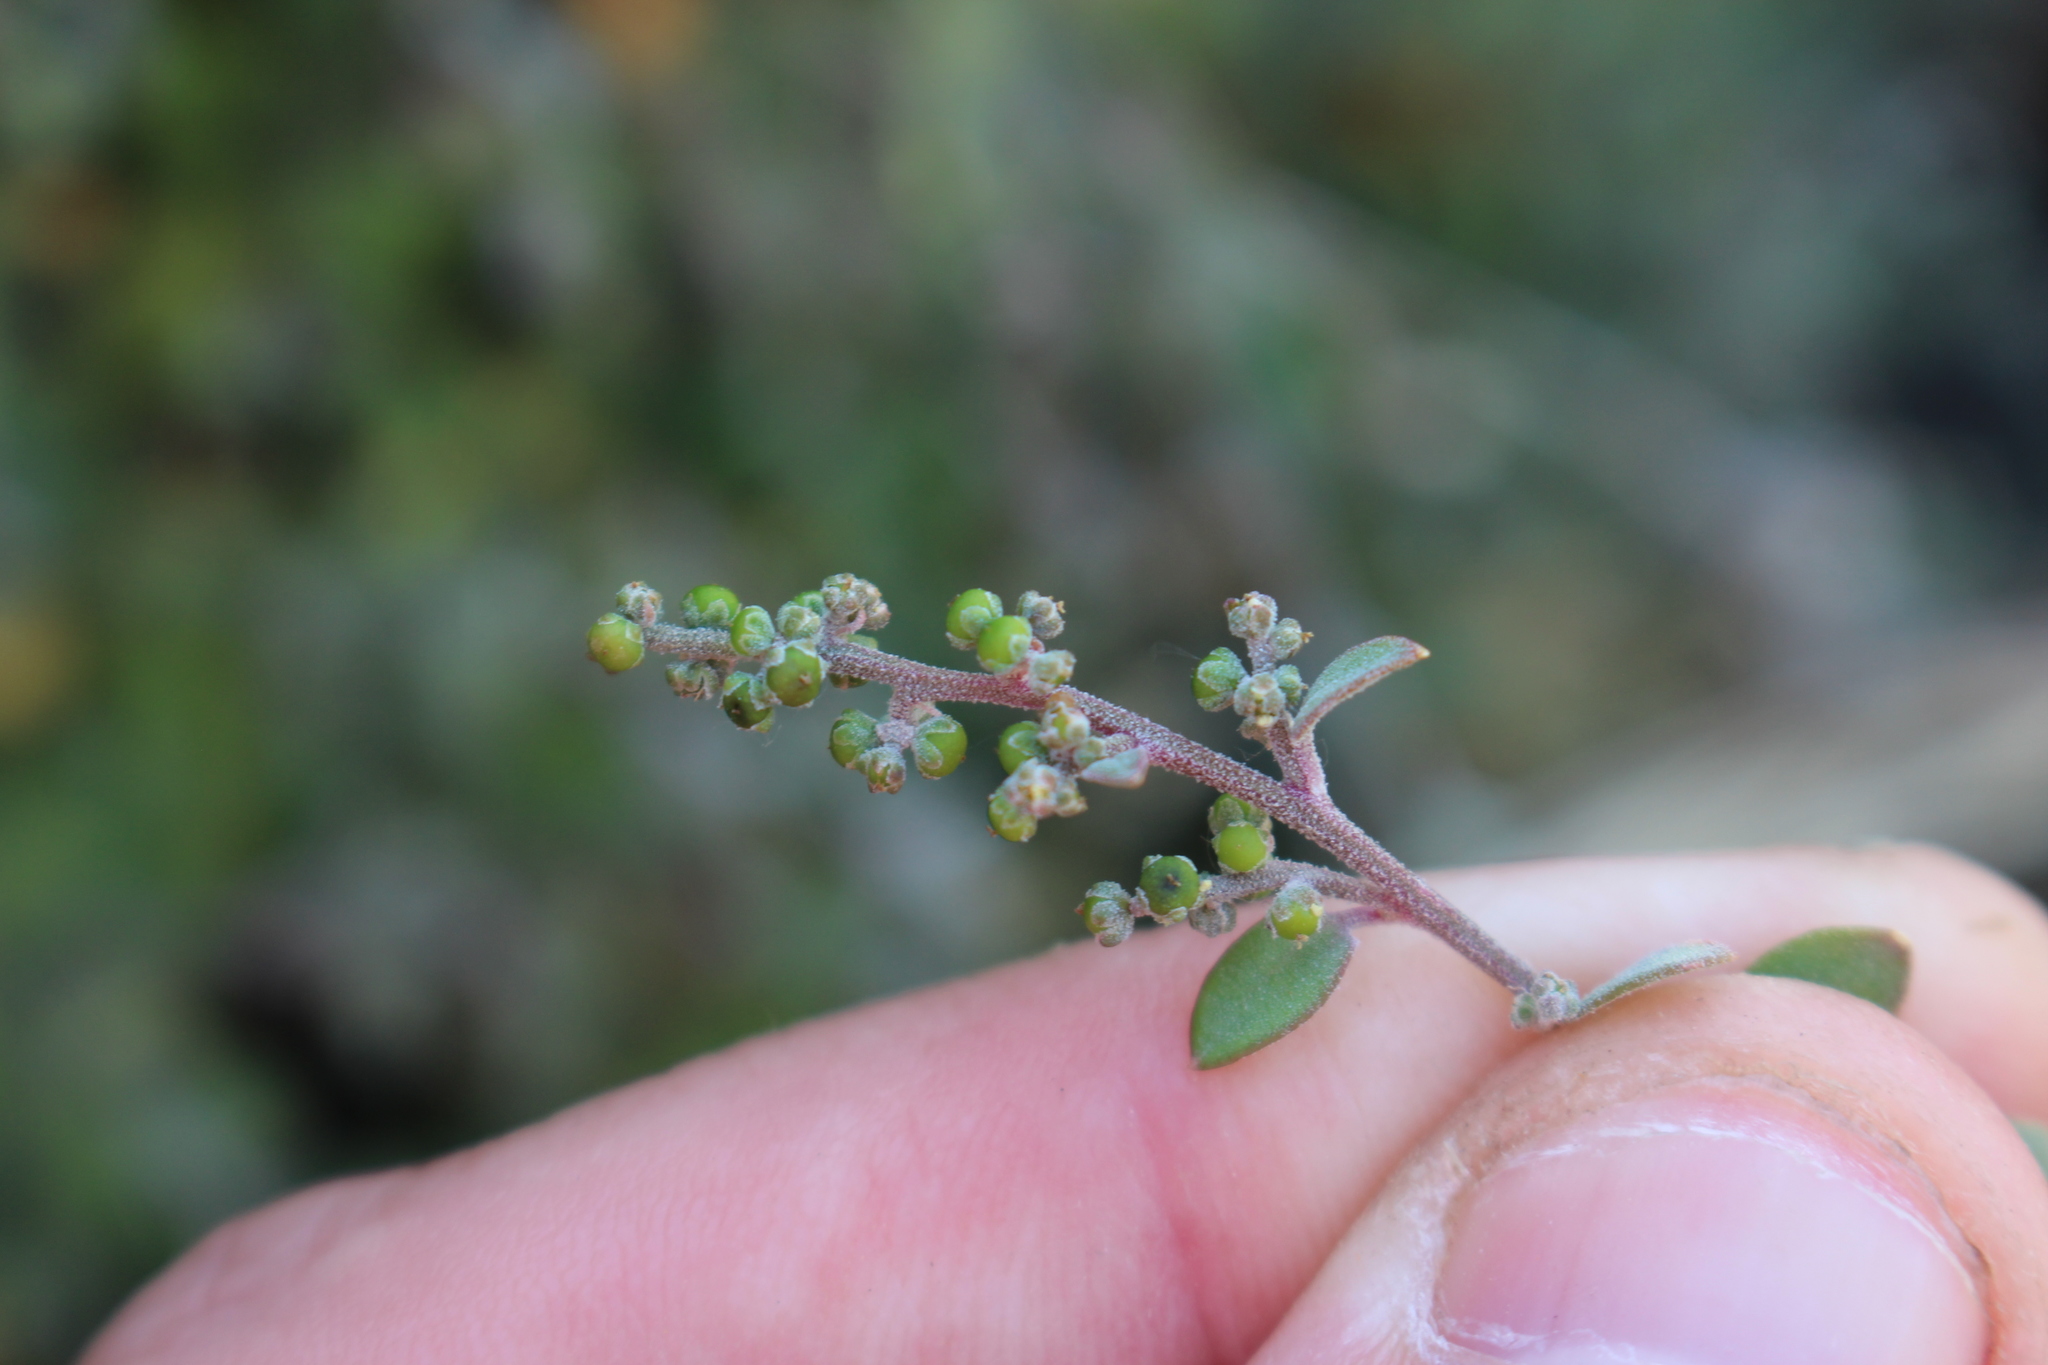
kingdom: Plantae
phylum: Tracheophyta
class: Magnoliopsida
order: Caryophyllales
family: Amaranthaceae
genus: Chenopodium
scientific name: Chenopodium triandrum
